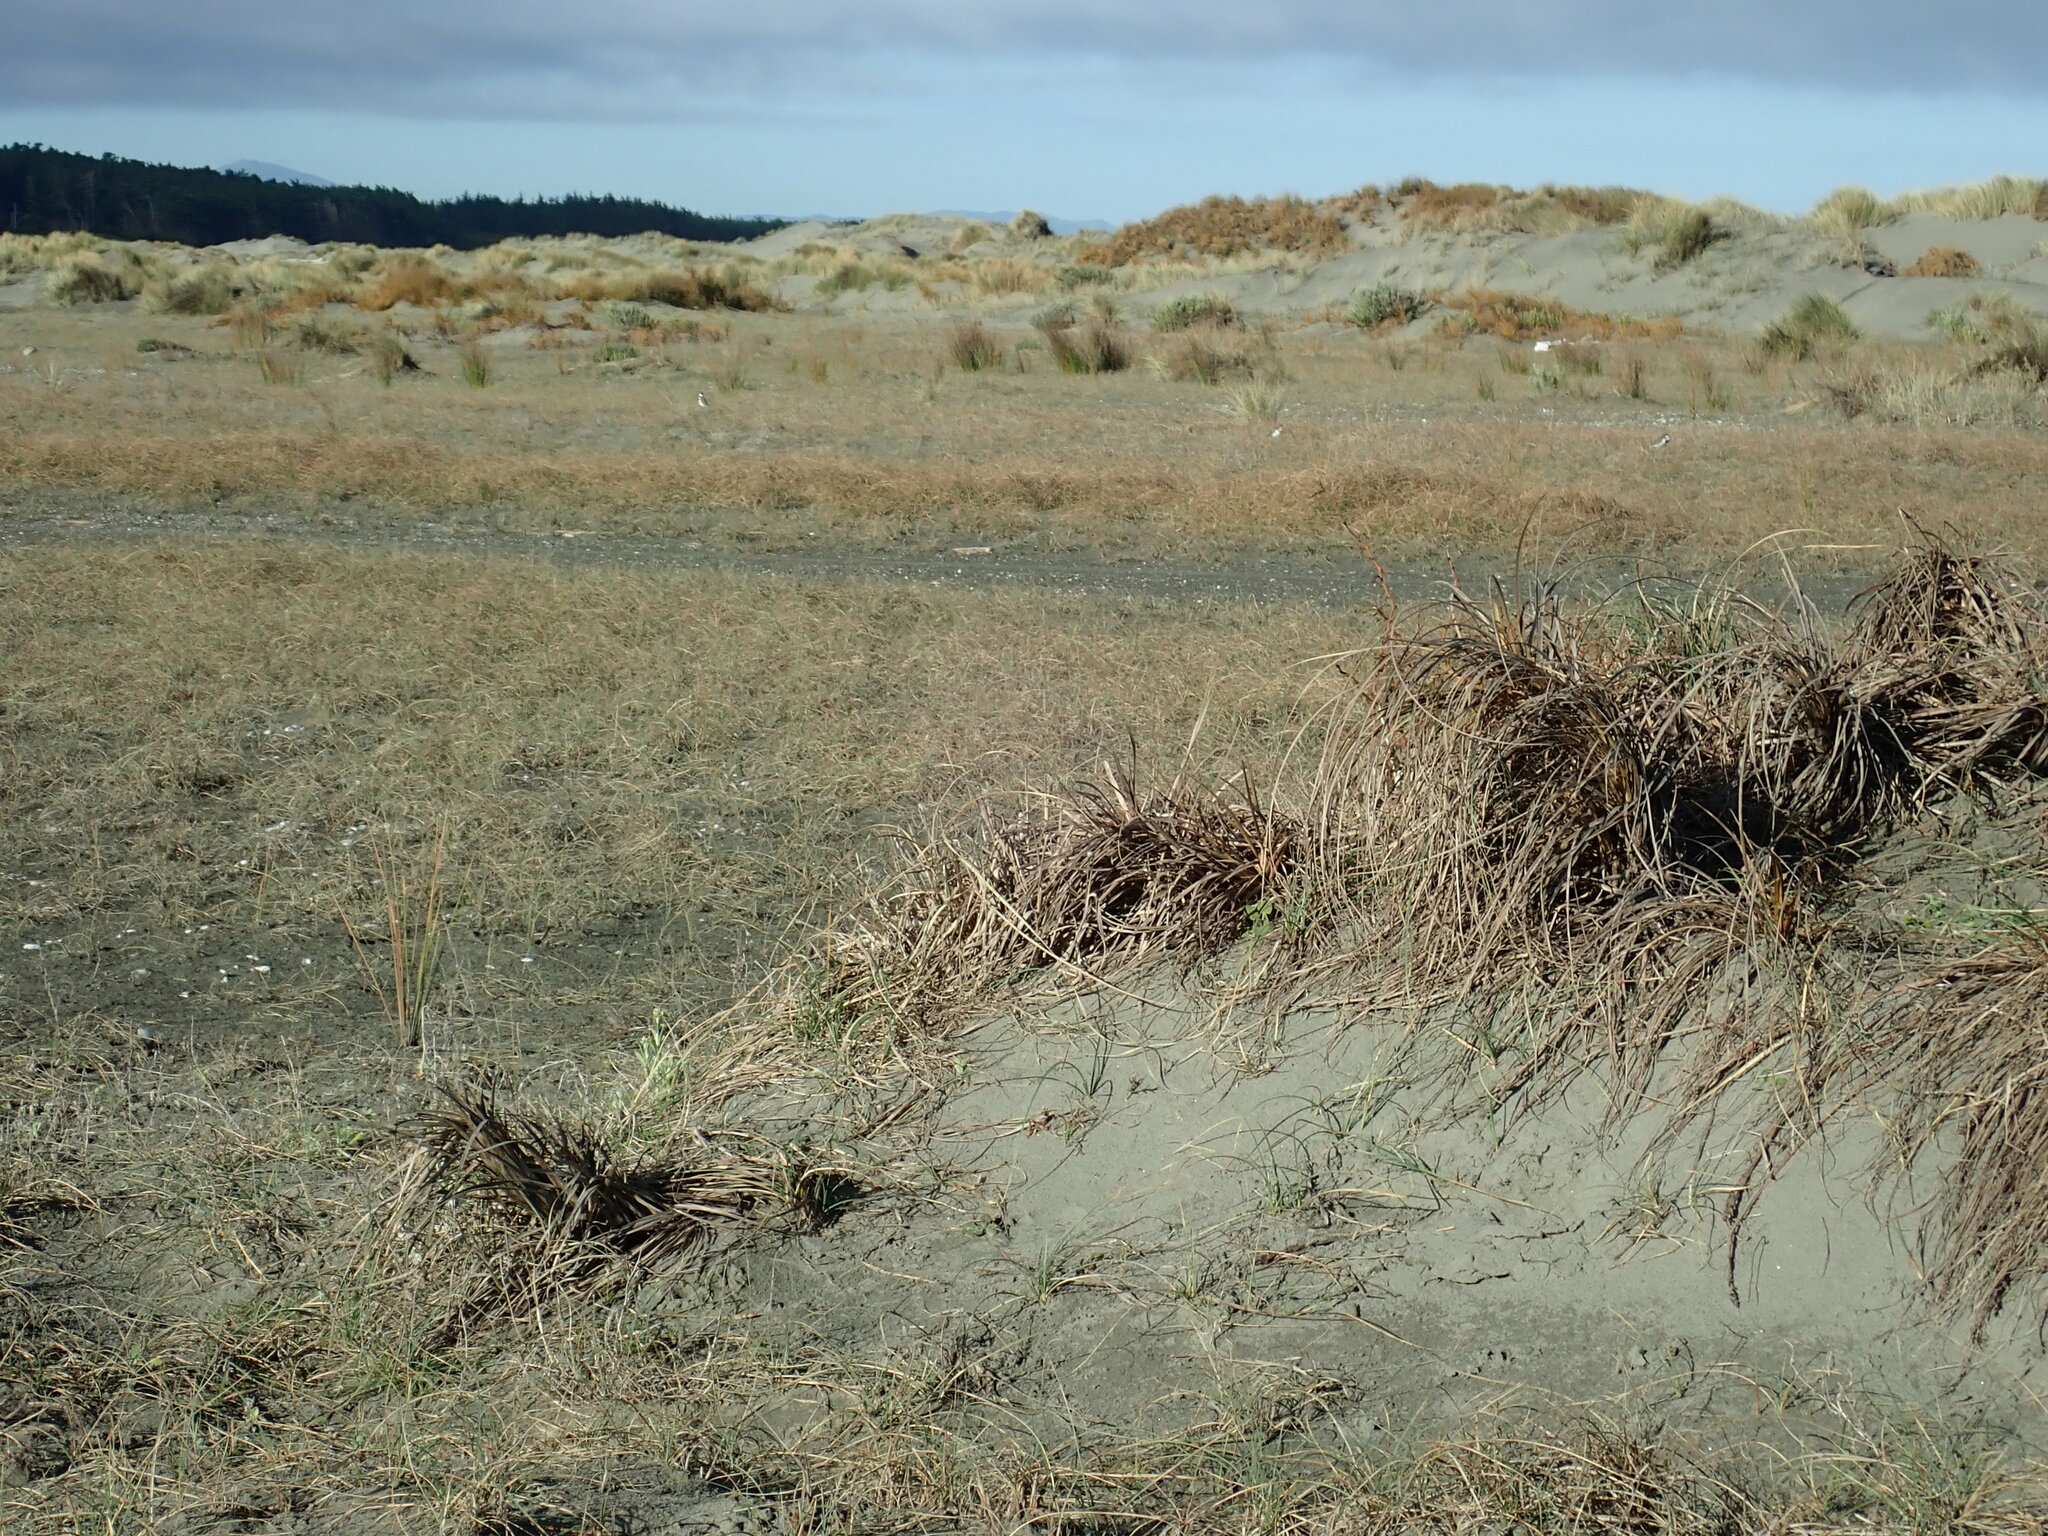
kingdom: Animalia
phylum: Chordata
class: Aves
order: Charadriiformes
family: Charadriidae
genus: Anarhynchus
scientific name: Anarhynchus
